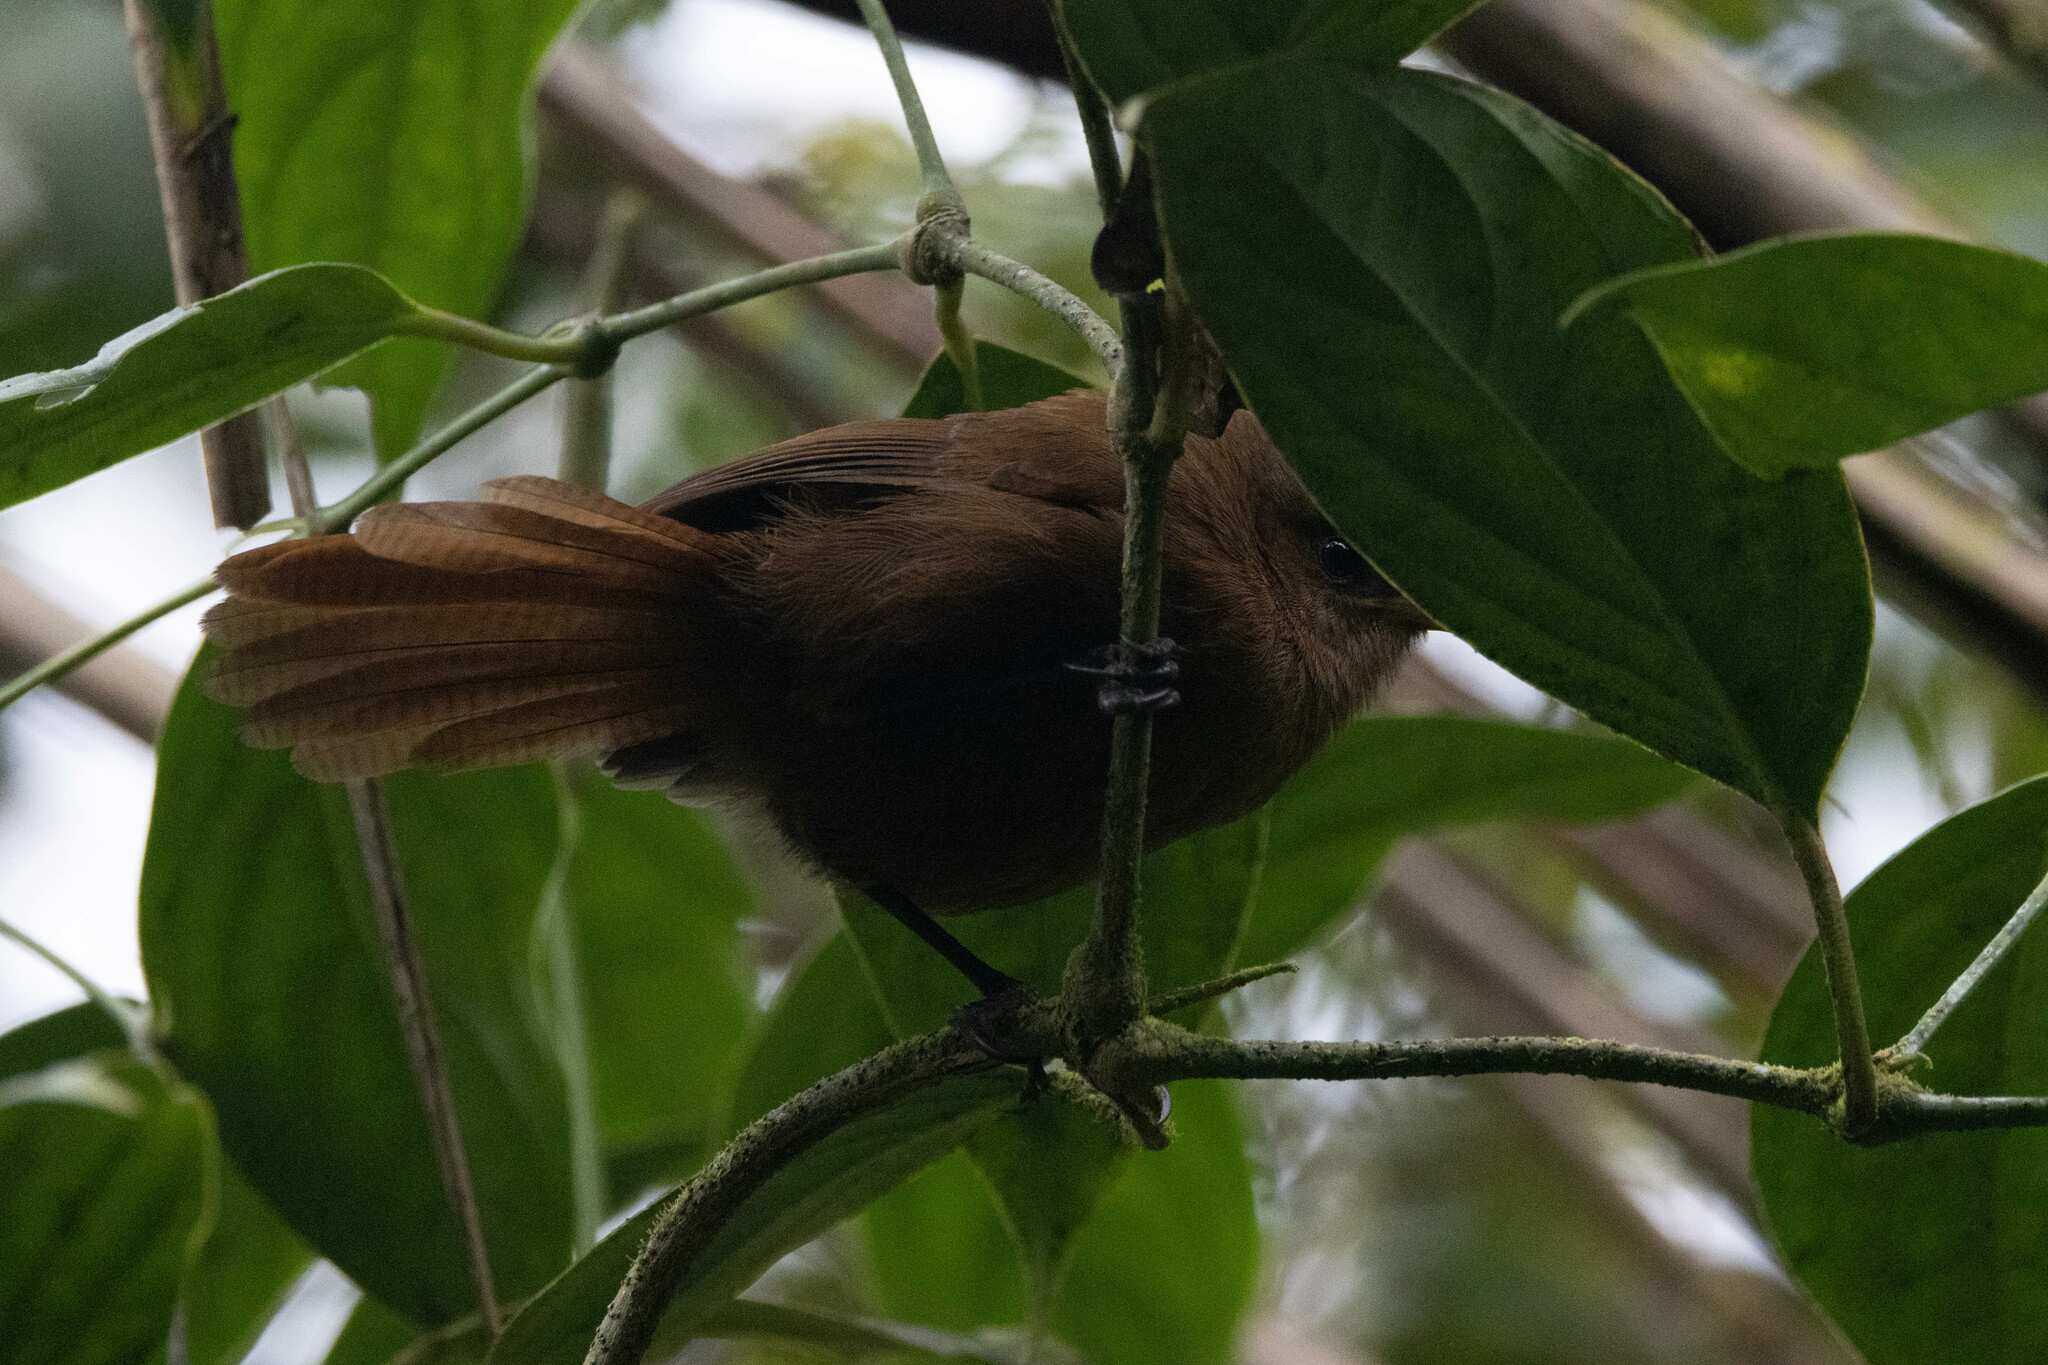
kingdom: Animalia
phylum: Chordata
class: Aves
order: Passeriformes
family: Troglodytidae
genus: Cinnycerthia
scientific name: Cinnycerthia unirufa
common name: Rufous wren
